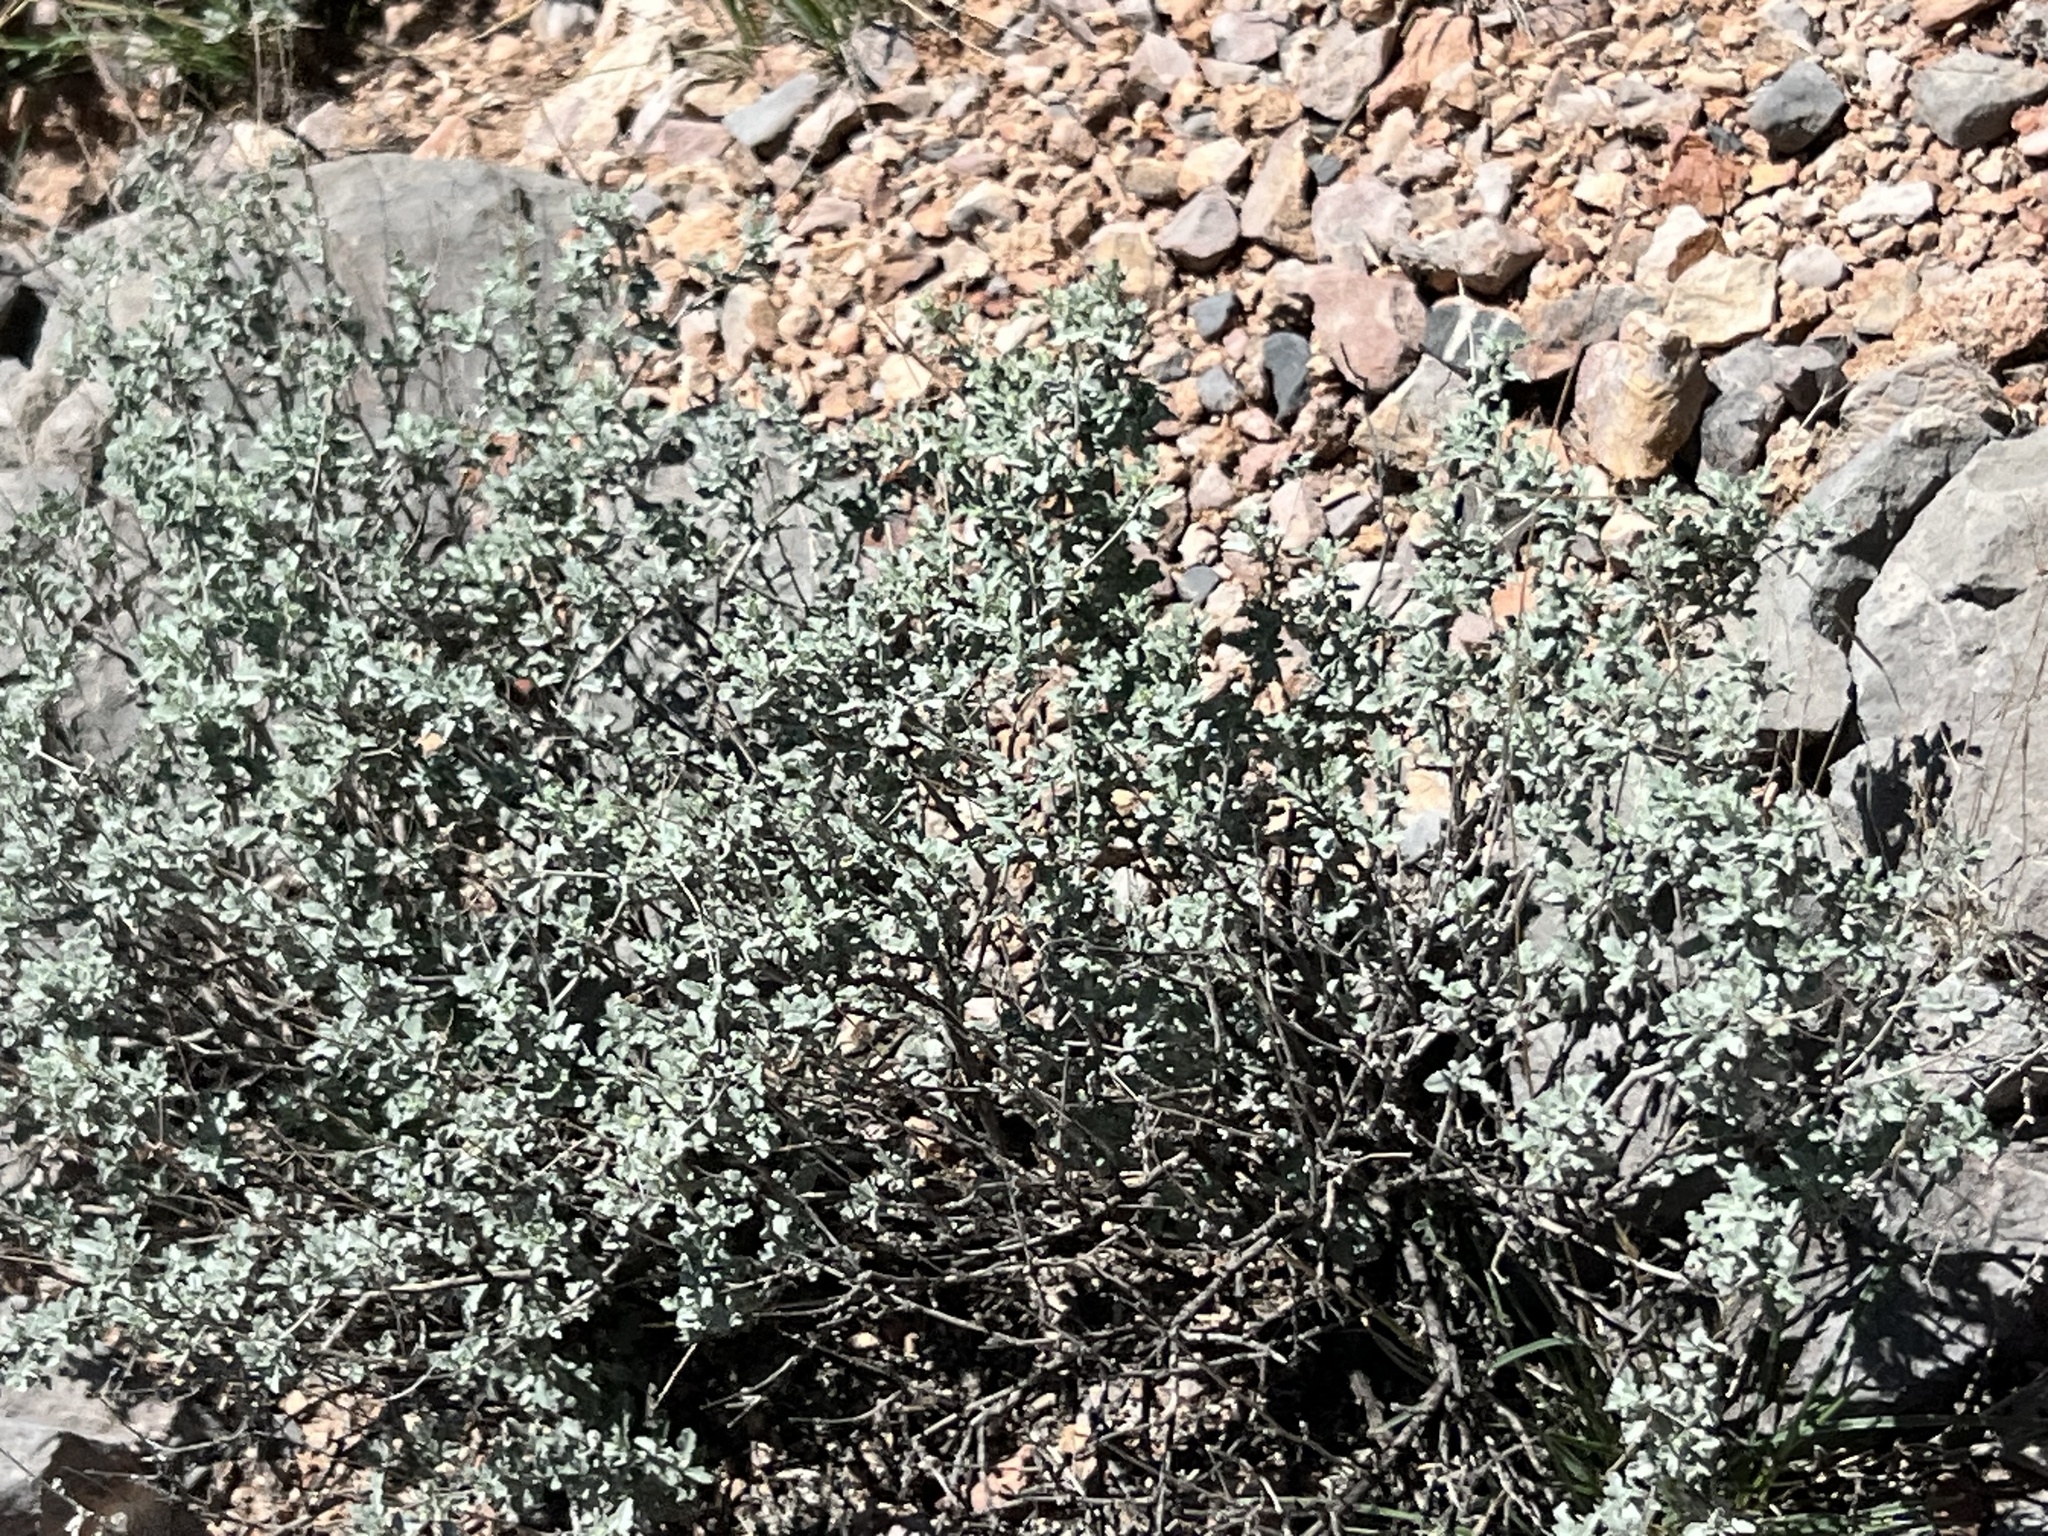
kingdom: Plantae
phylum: Tracheophyta
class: Magnoliopsida
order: Asterales
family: Asteraceae
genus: Parthenium
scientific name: Parthenium incanum
